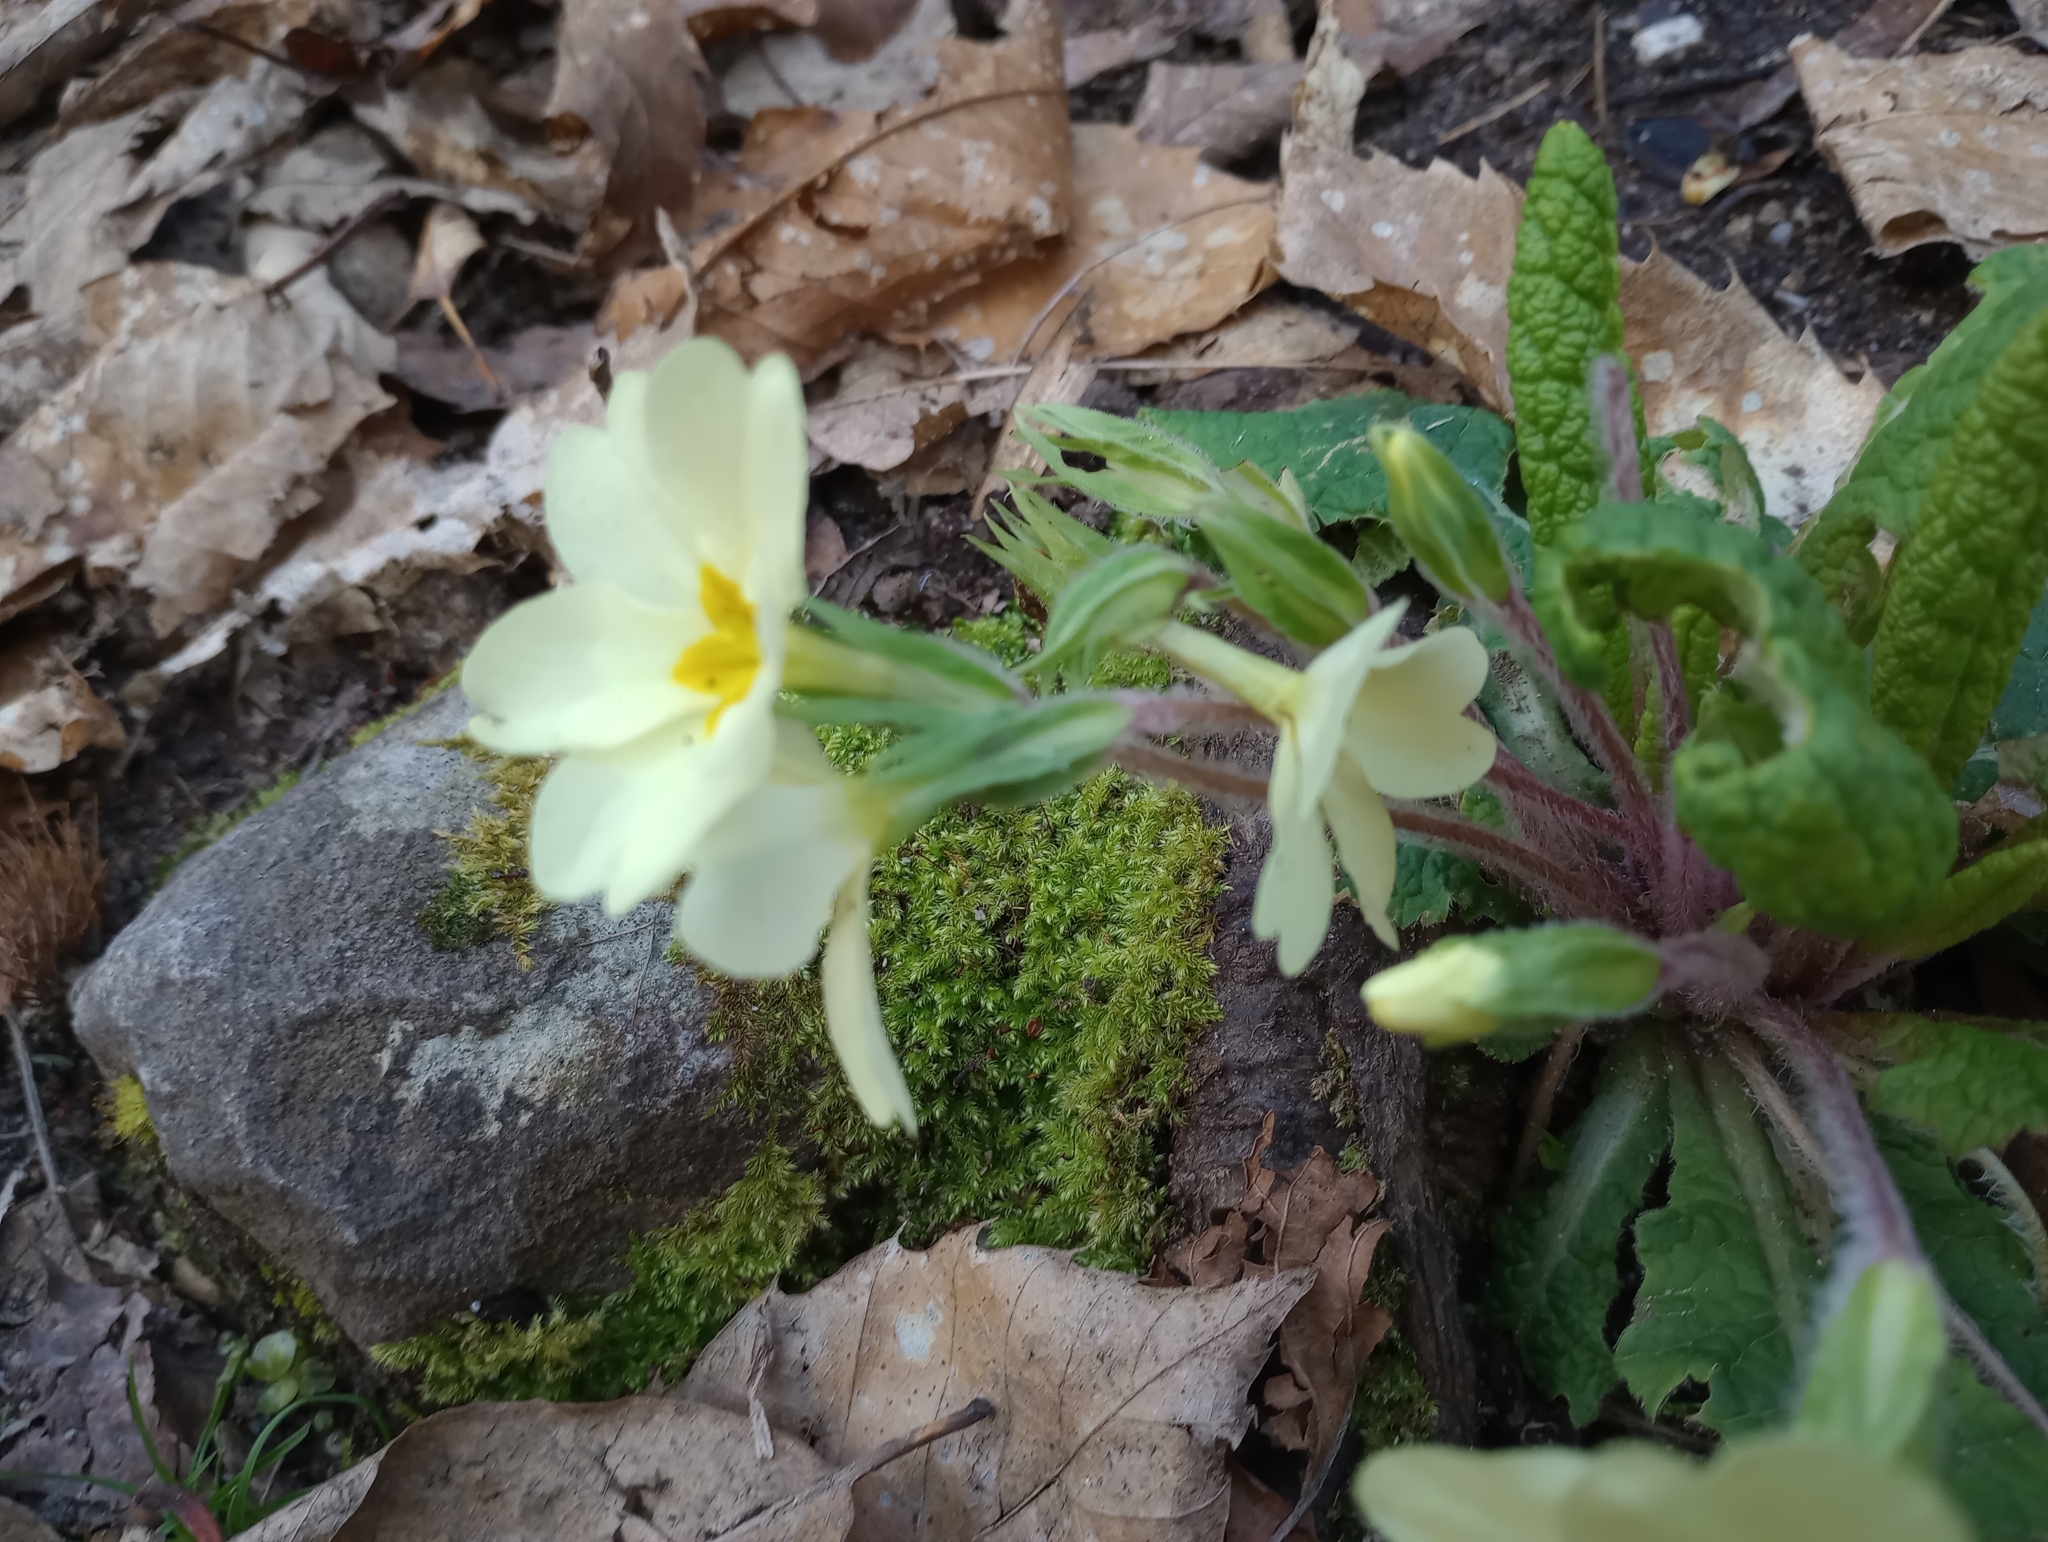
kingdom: Plantae
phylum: Tracheophyta
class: Magnoliopsida
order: Ericales
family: Primulaceae
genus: Primula
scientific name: Primula vulgaris
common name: Primrose
